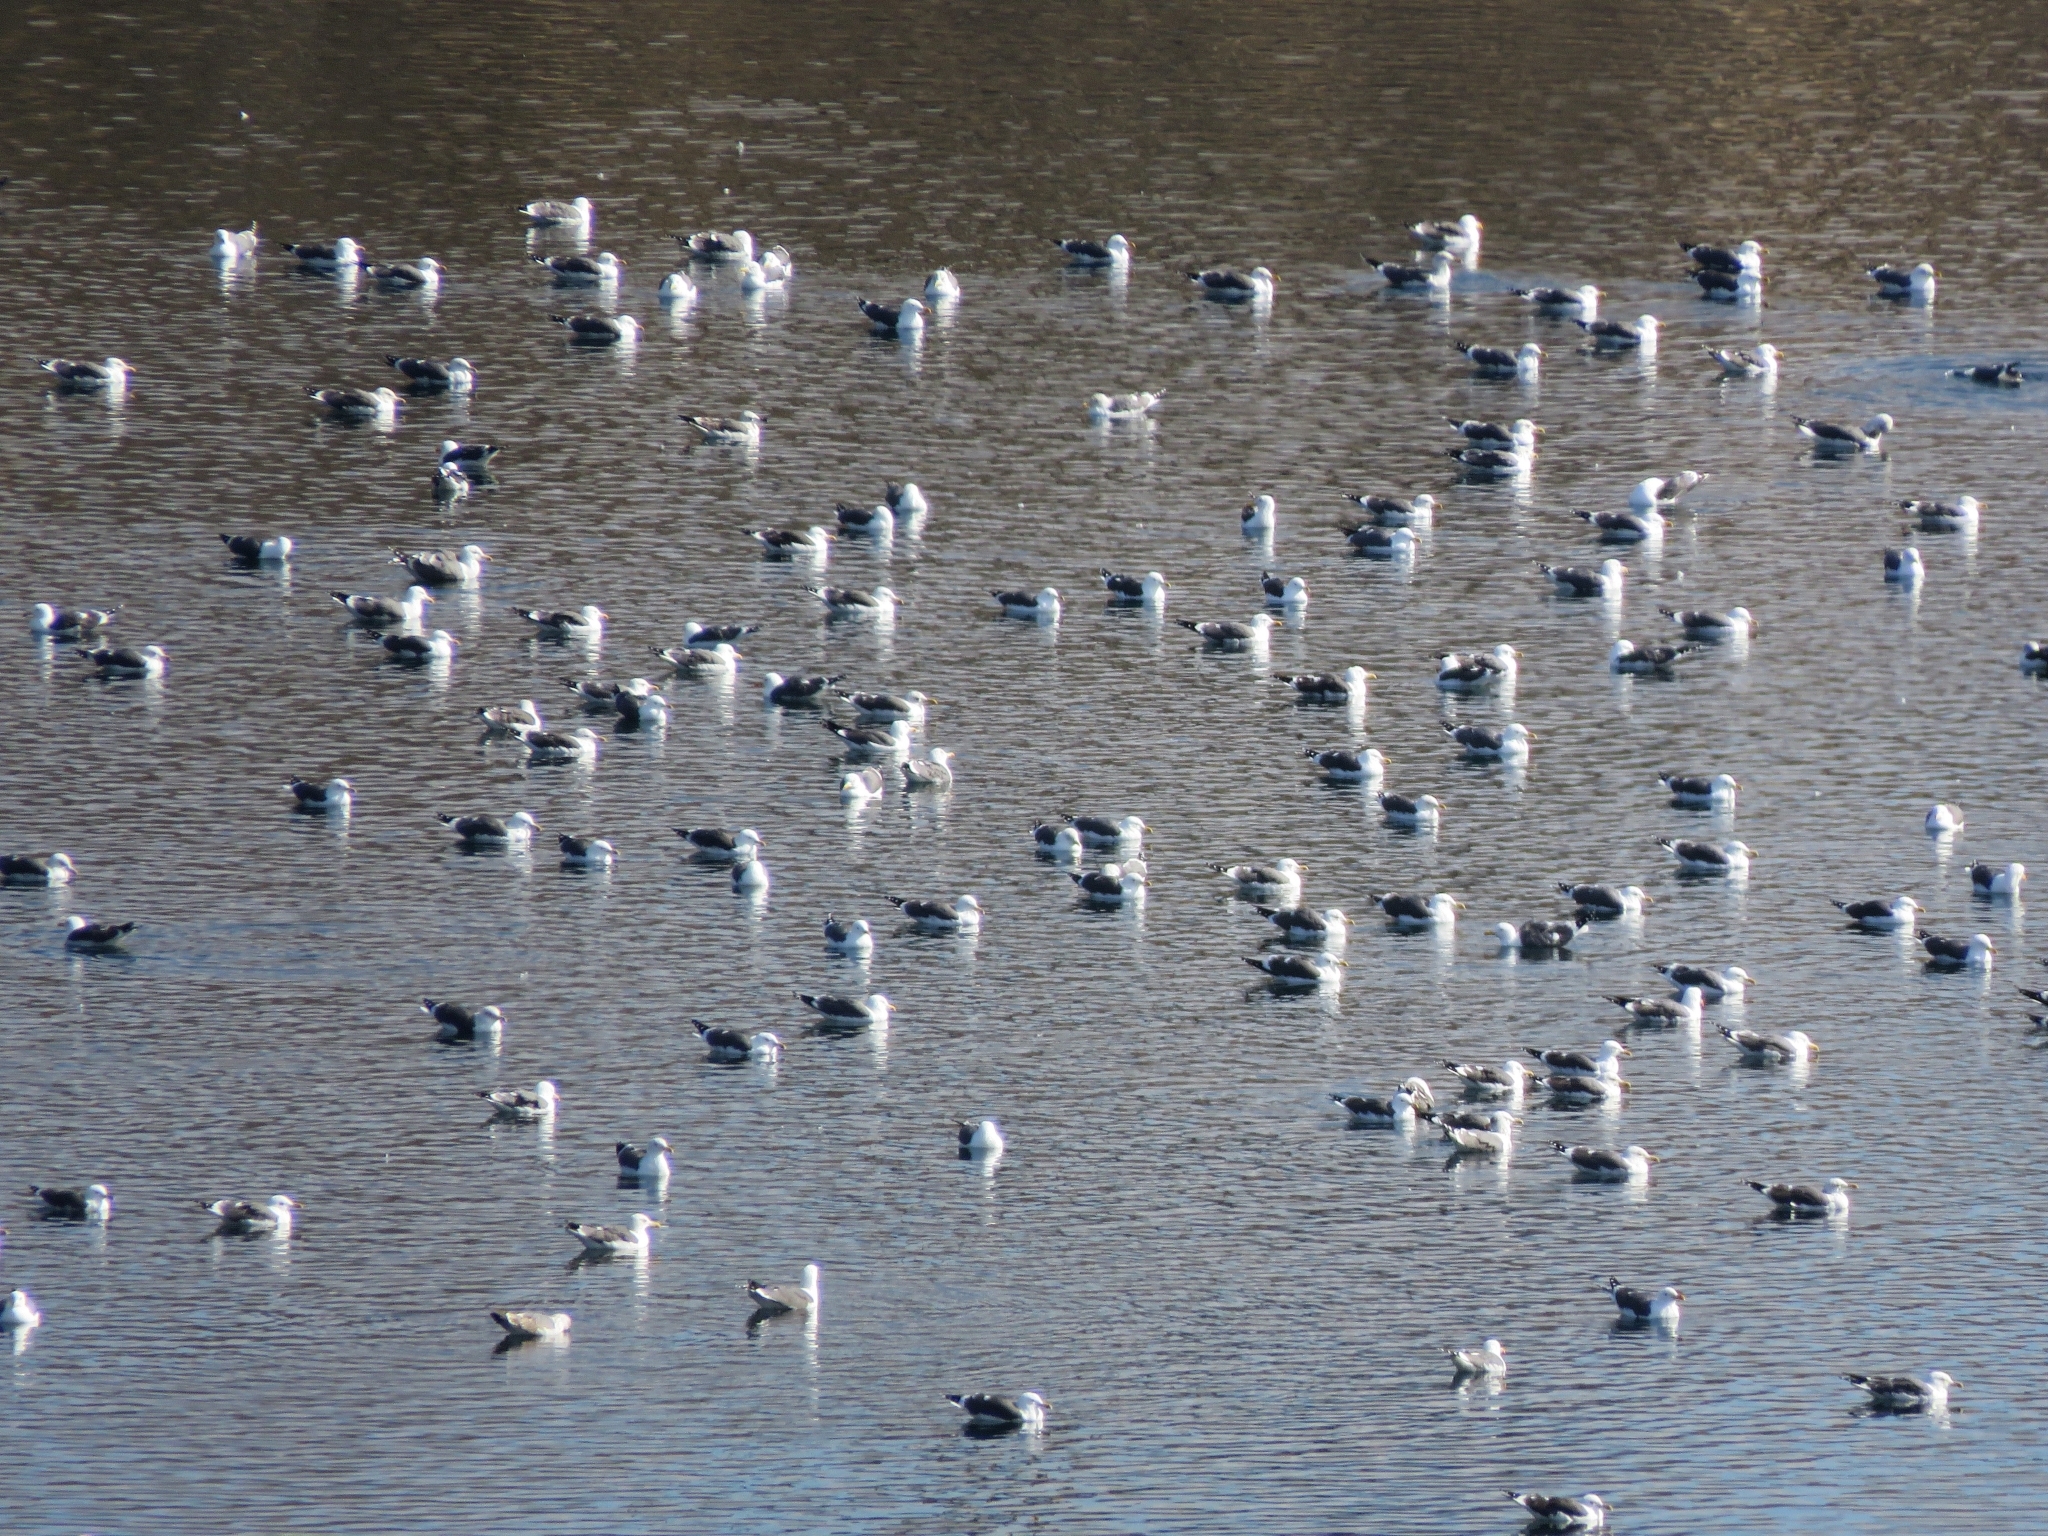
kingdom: Animalia
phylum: Chordata
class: Aves
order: Charadriiformes
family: Laridae
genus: Larus
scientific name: Larus fuscus
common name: Lesser black-backed gull
